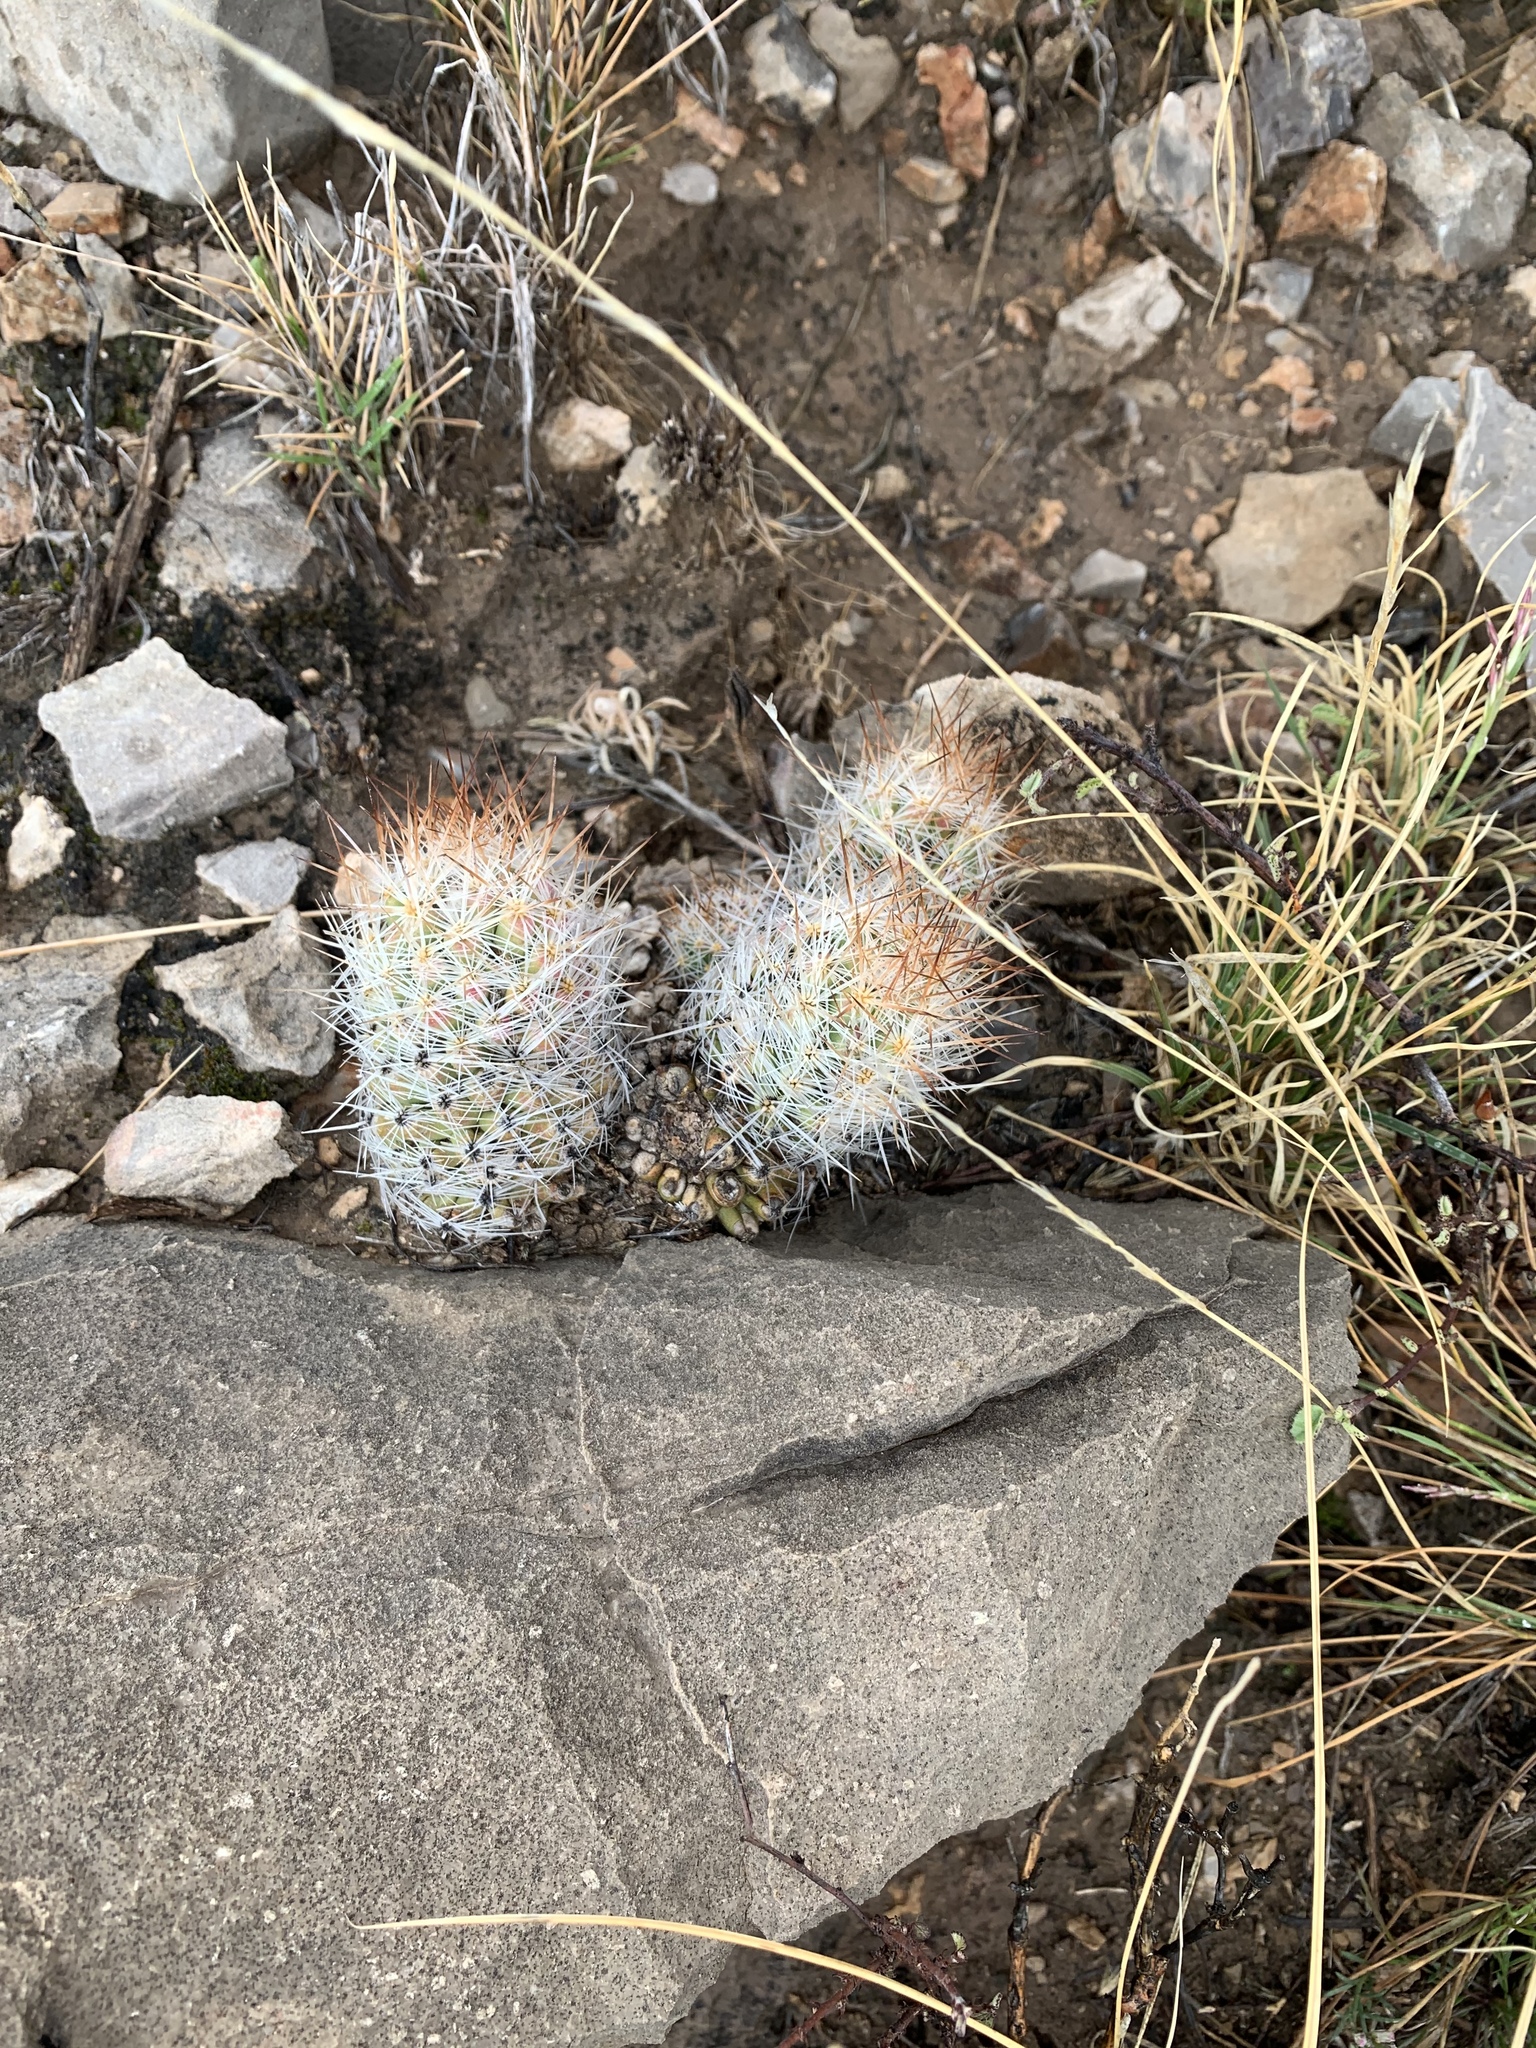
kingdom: Plantae
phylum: Tracheophyta
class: Magnoliopsida
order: Caryophyllales
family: Cactaceae
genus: Pelecyphora
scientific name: Pelecyphora tuberculosa
